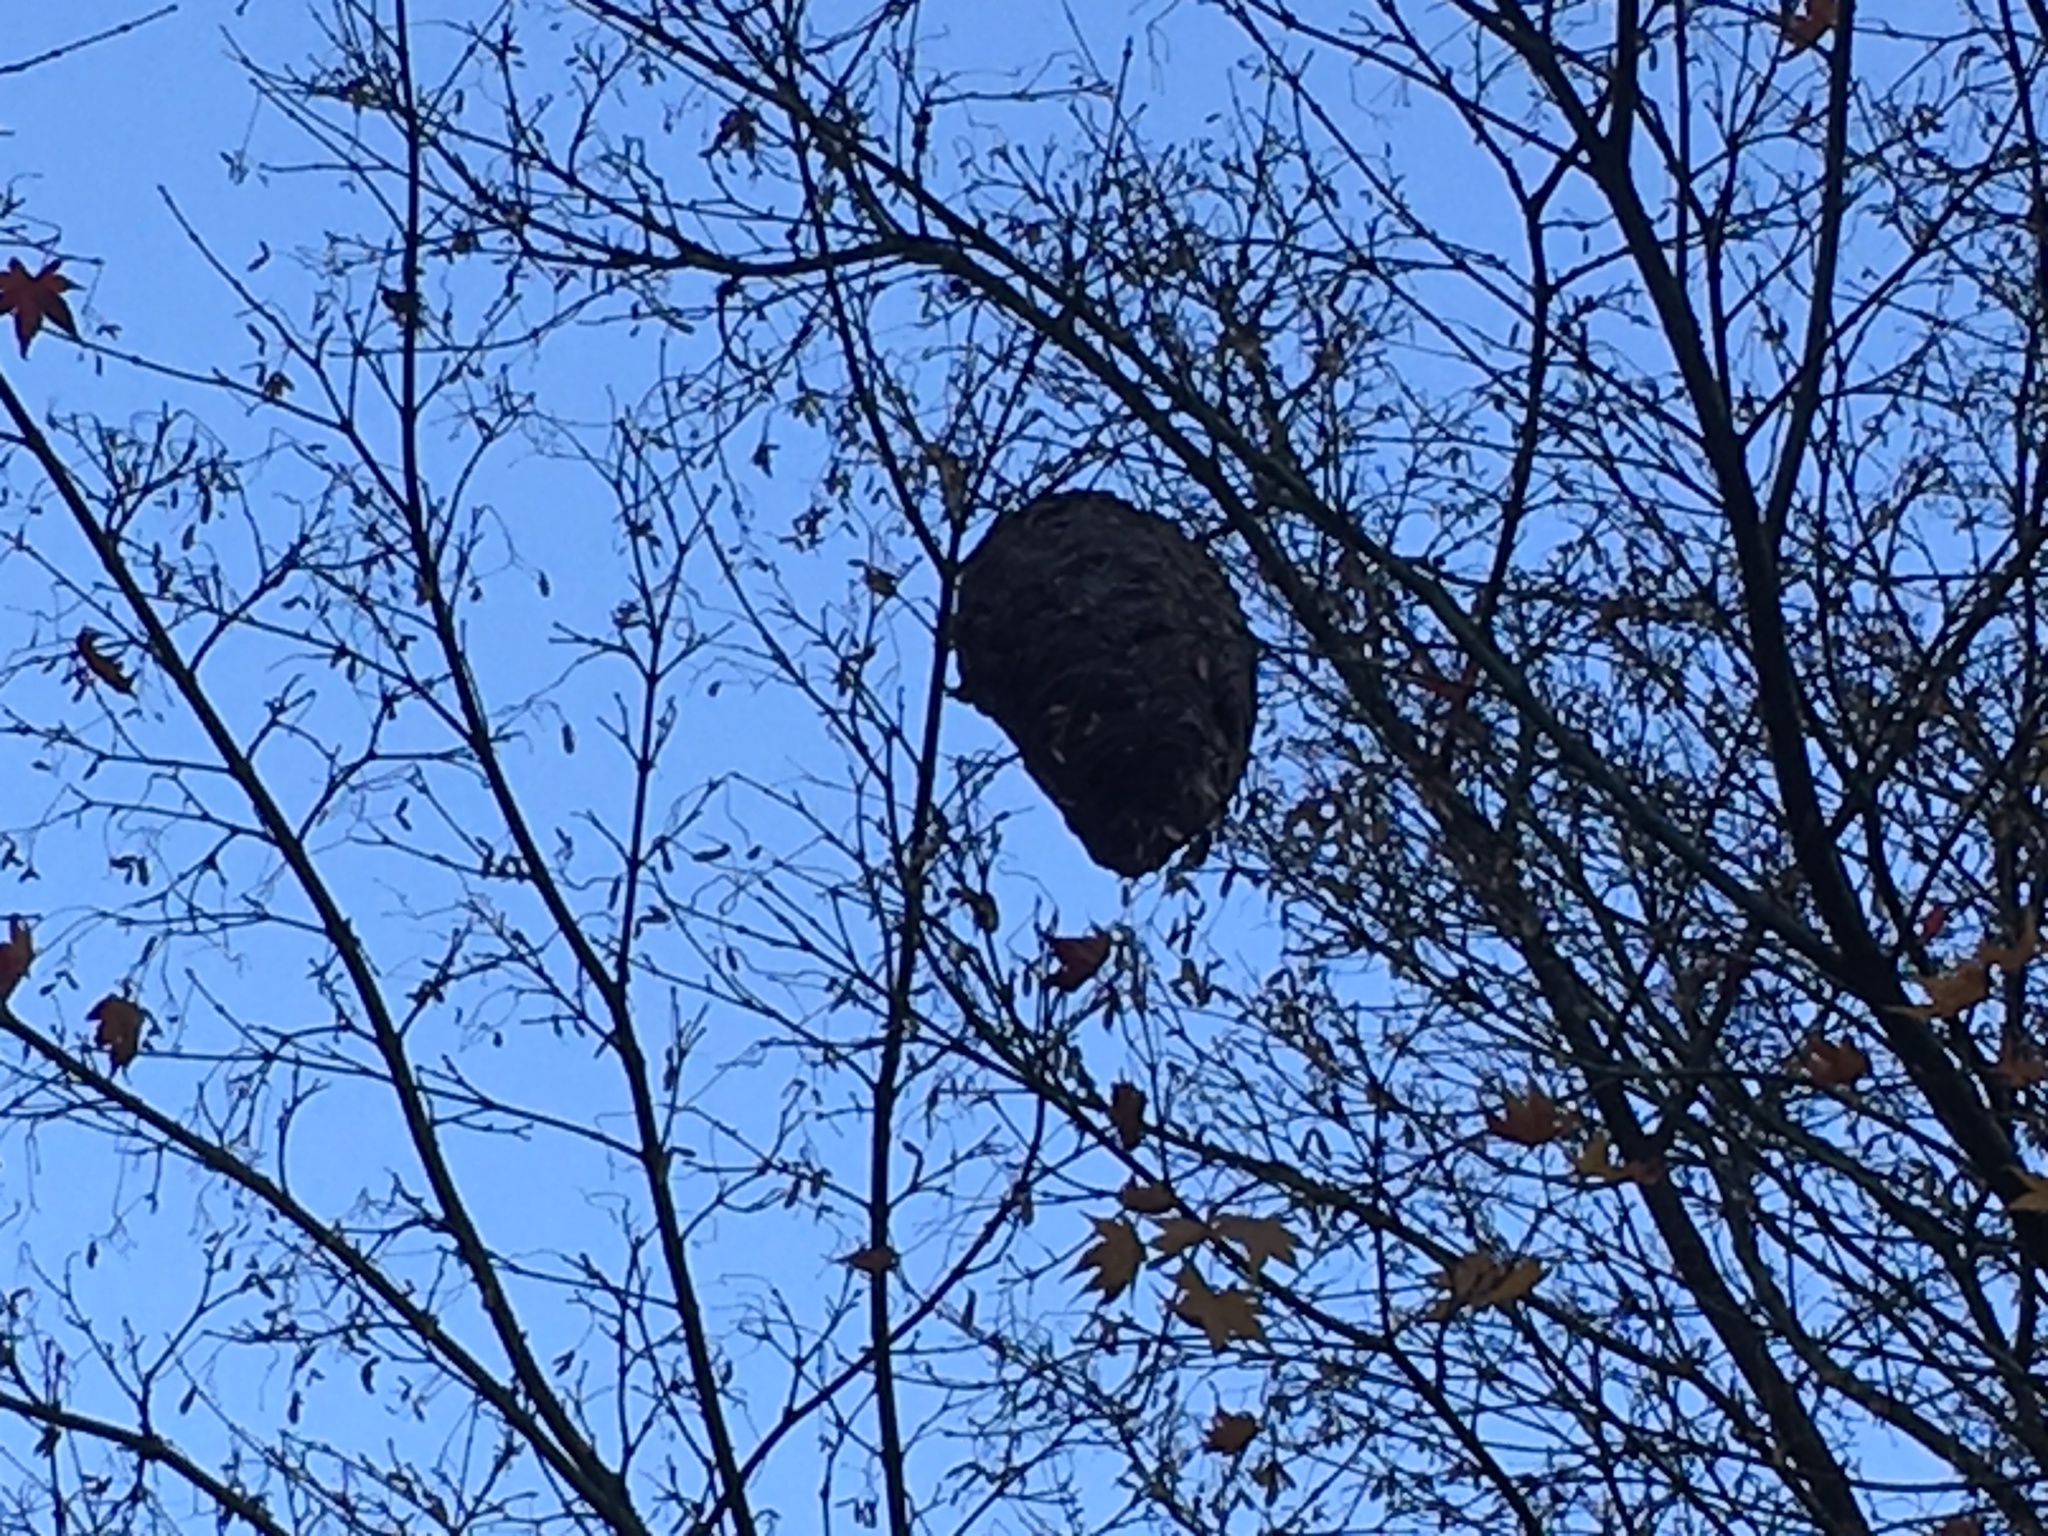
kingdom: Animalia
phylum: Arthropoda
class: Insecta
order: Hymenoptera
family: Vespidae
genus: Dolichovespula
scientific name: Dolichovespula maculata
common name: Bald-faced hornet
